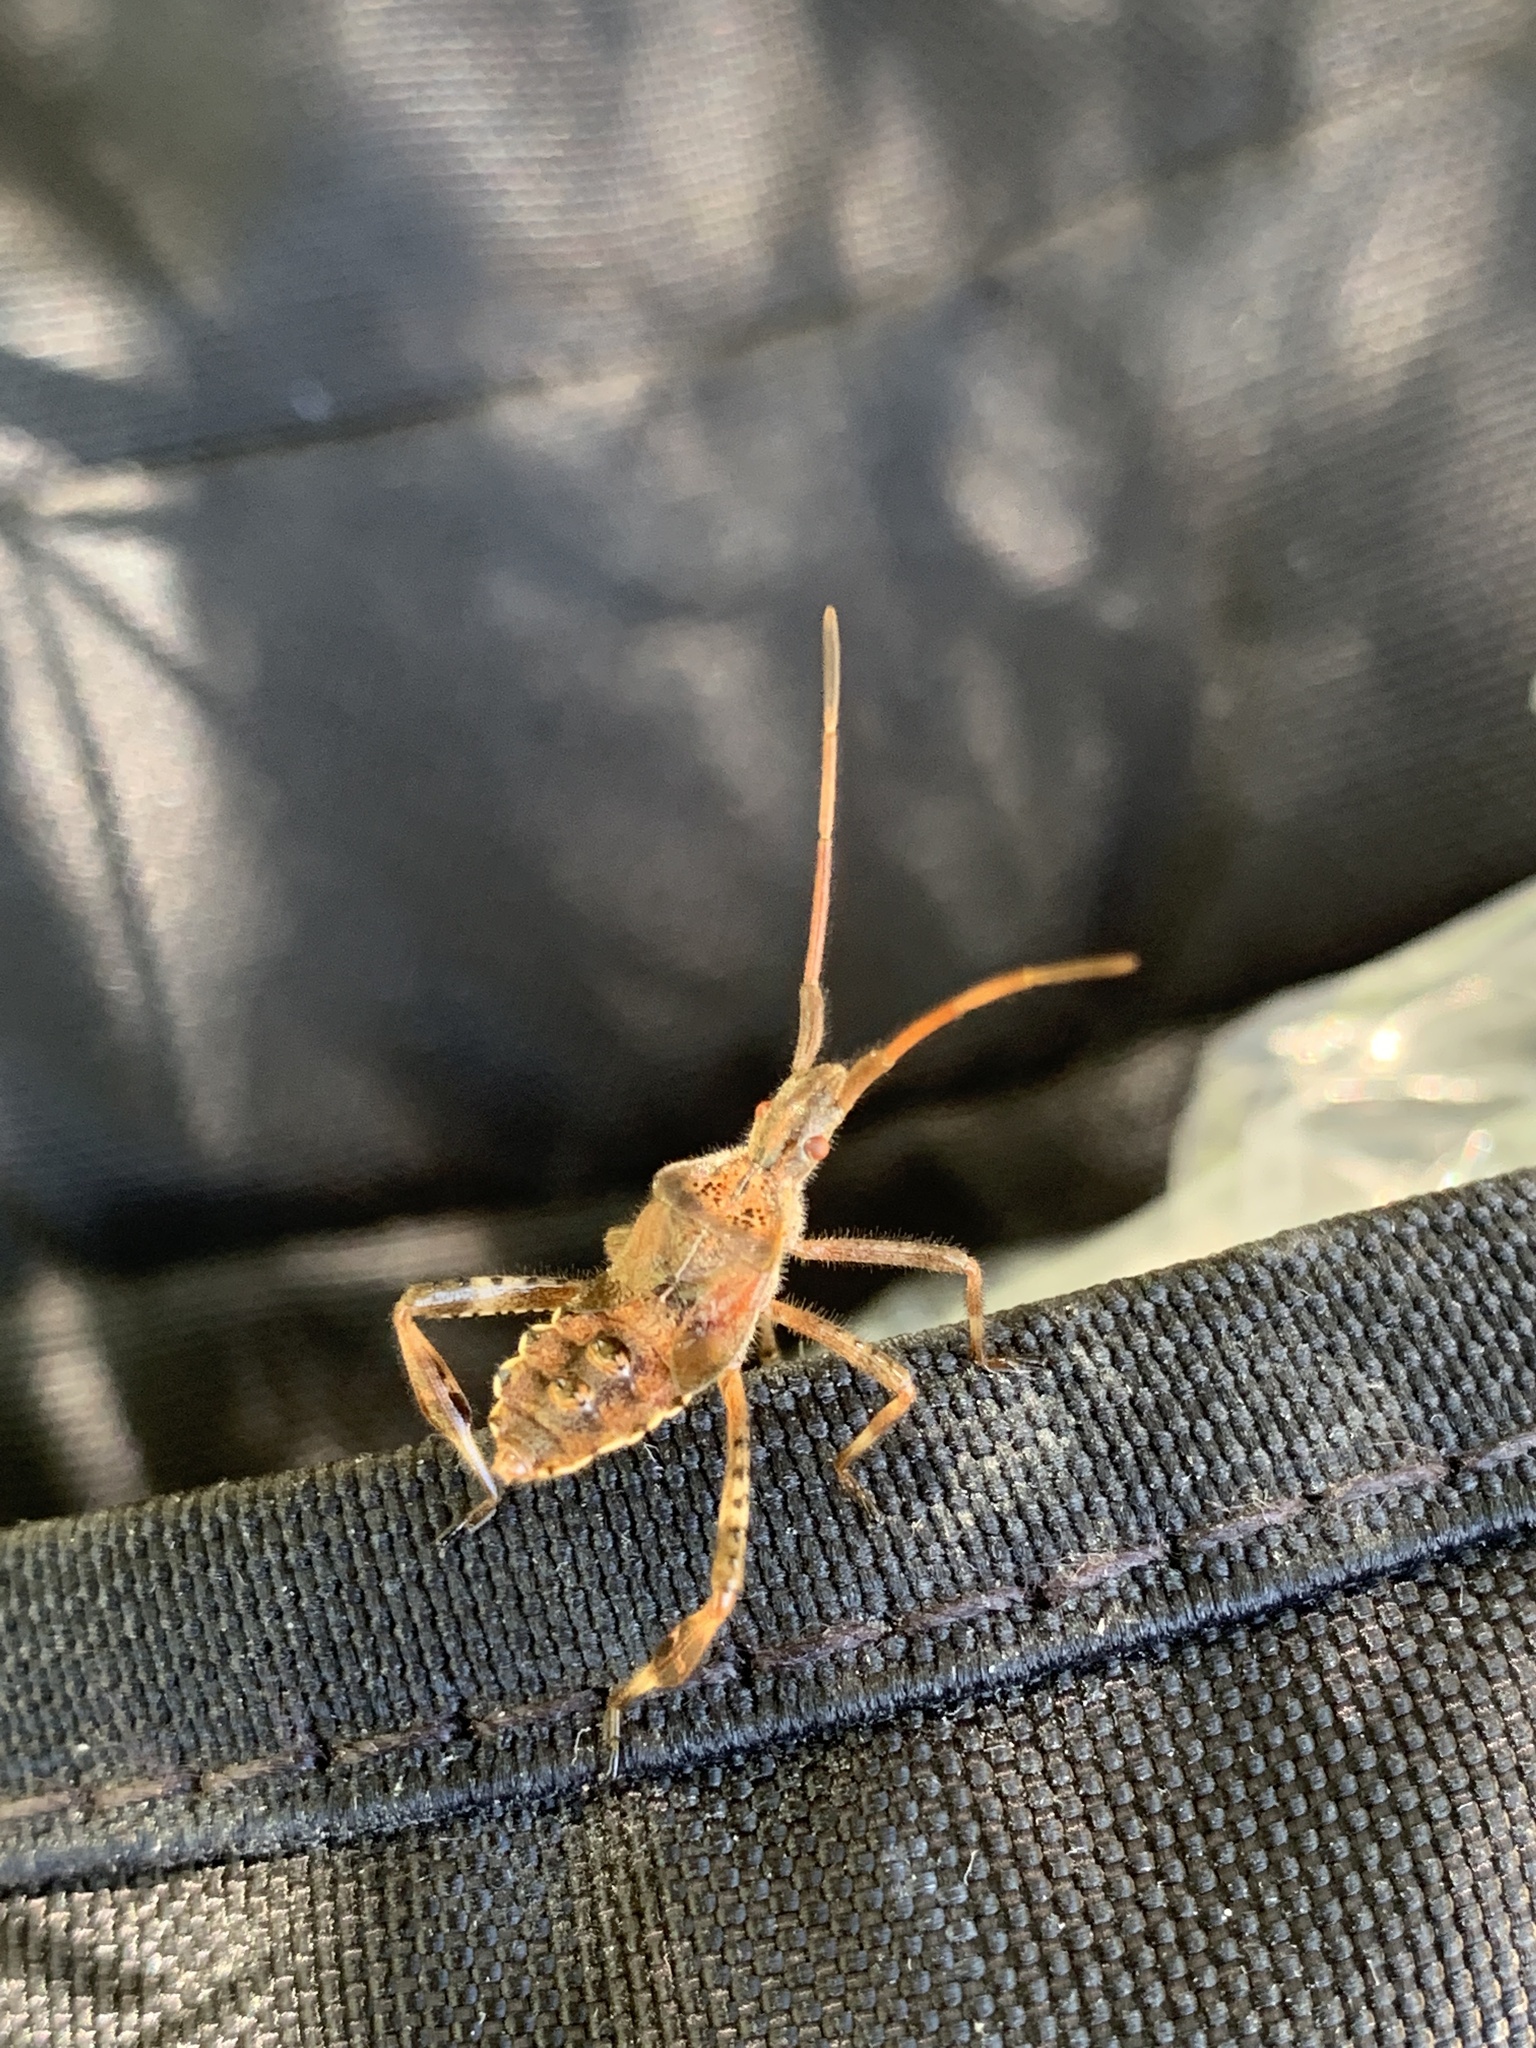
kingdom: Animalia
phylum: Arthropoda
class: Insecta
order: Hemiptera
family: Coreidae
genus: Leptoglossus
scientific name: Leptoglossus occidentalis
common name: Western conifer-seed bug
